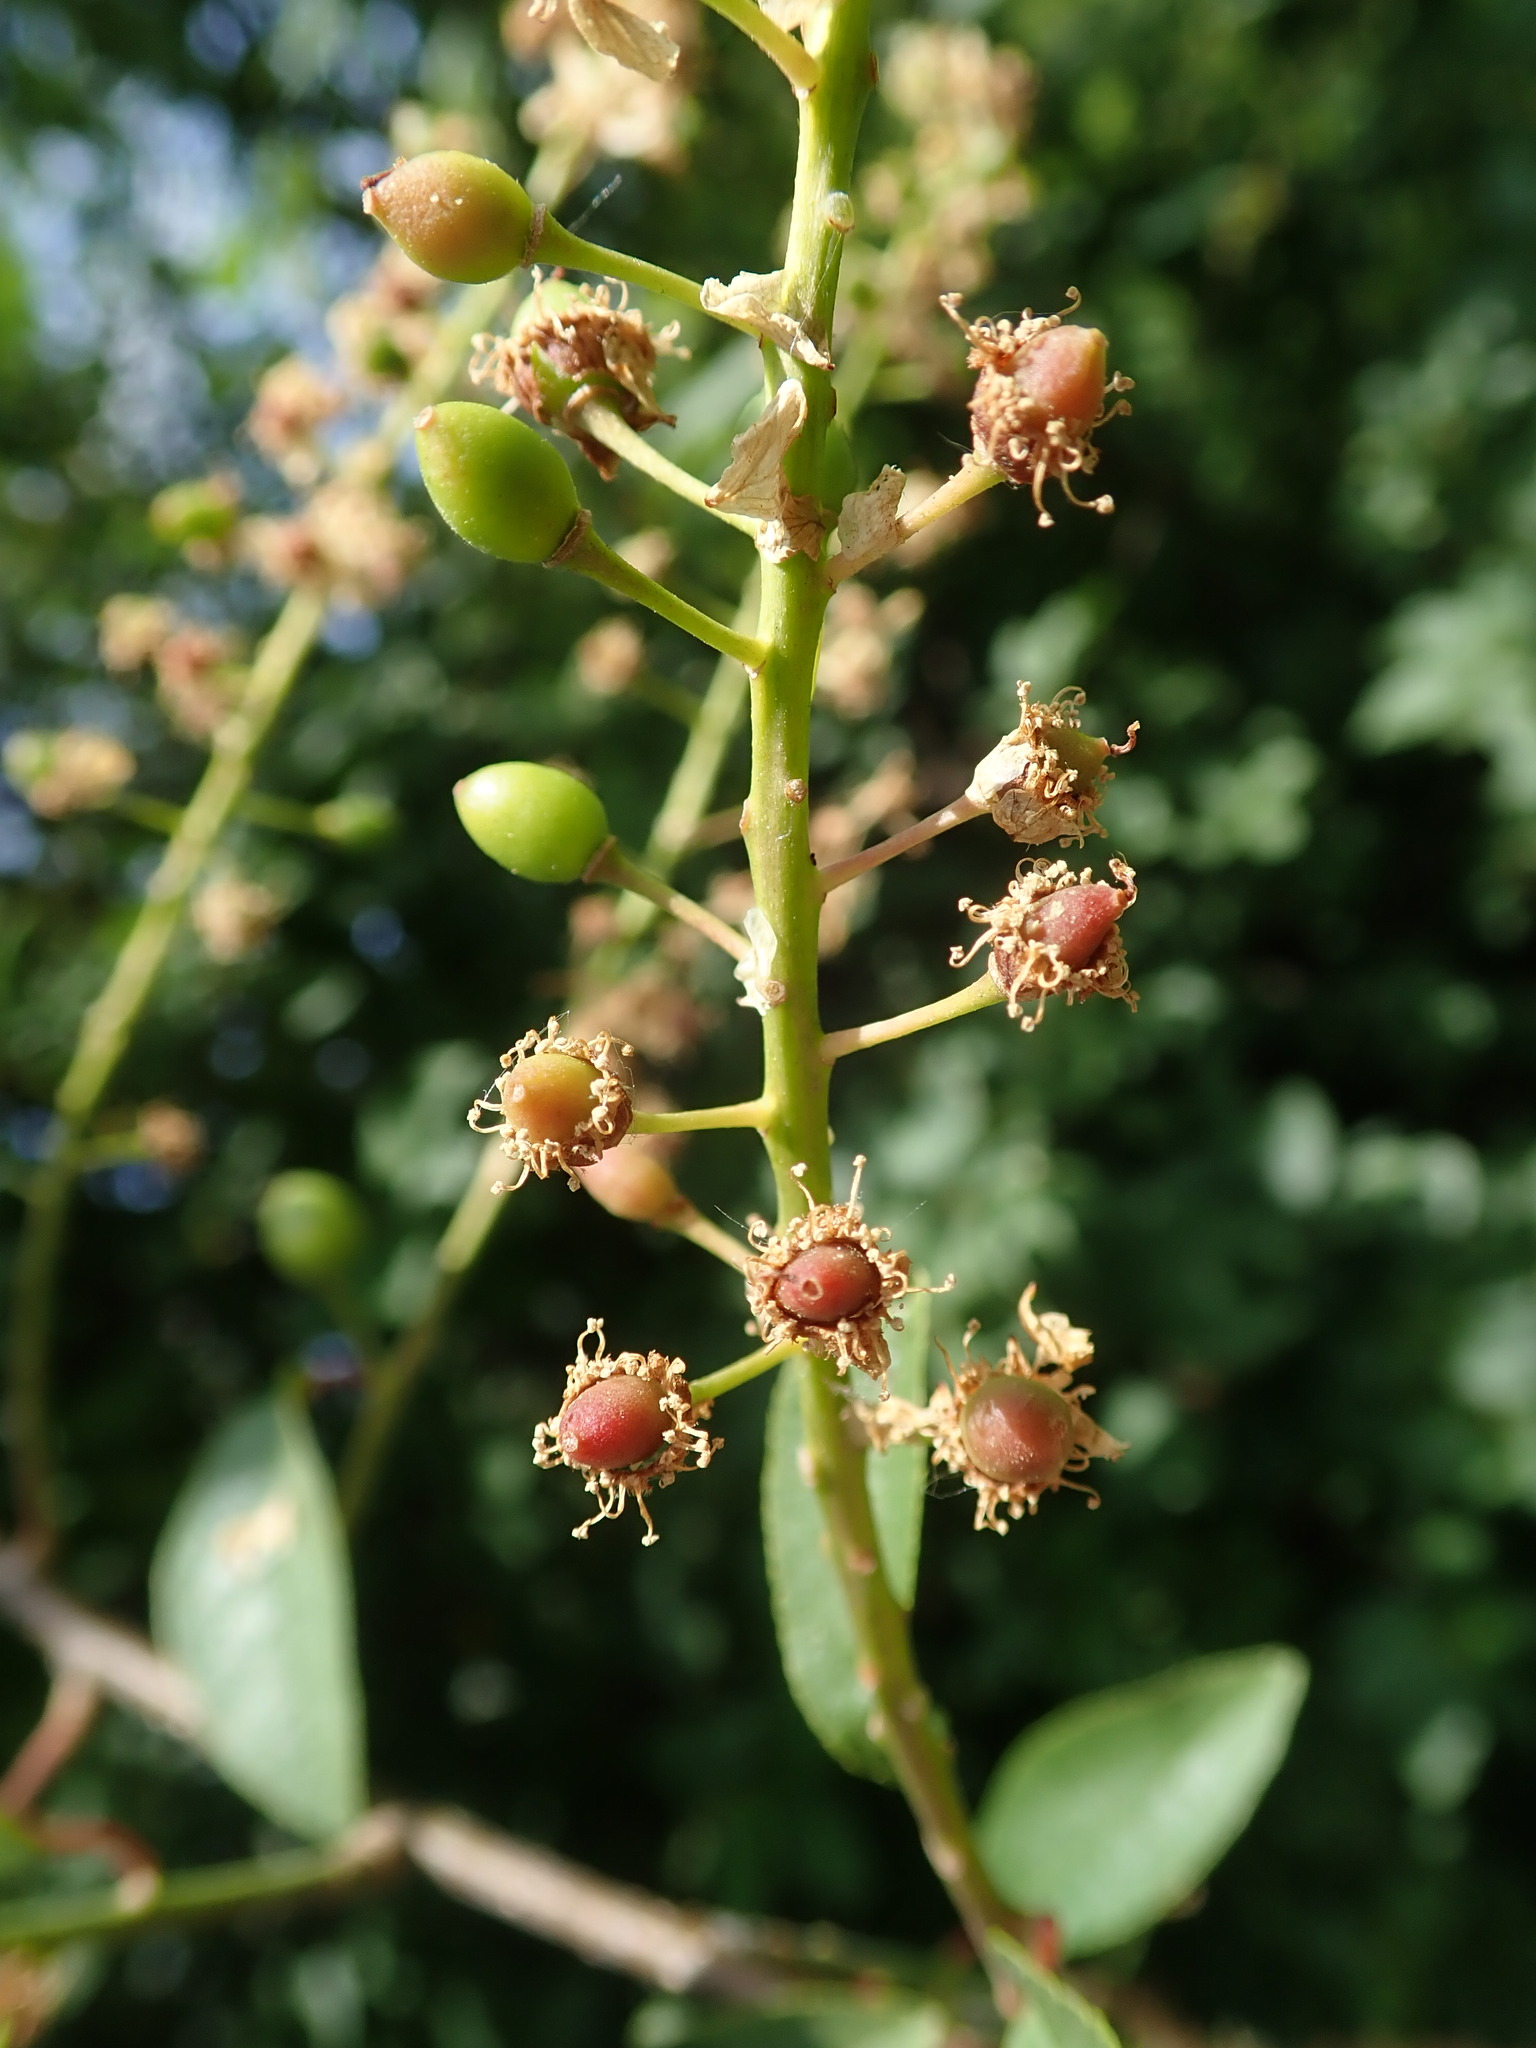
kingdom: Plantae
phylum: Tracheophyta
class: Magnoliopsida
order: Rosales
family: Rosaceae
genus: Prunus
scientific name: Prunus padus
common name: Bird cherry
